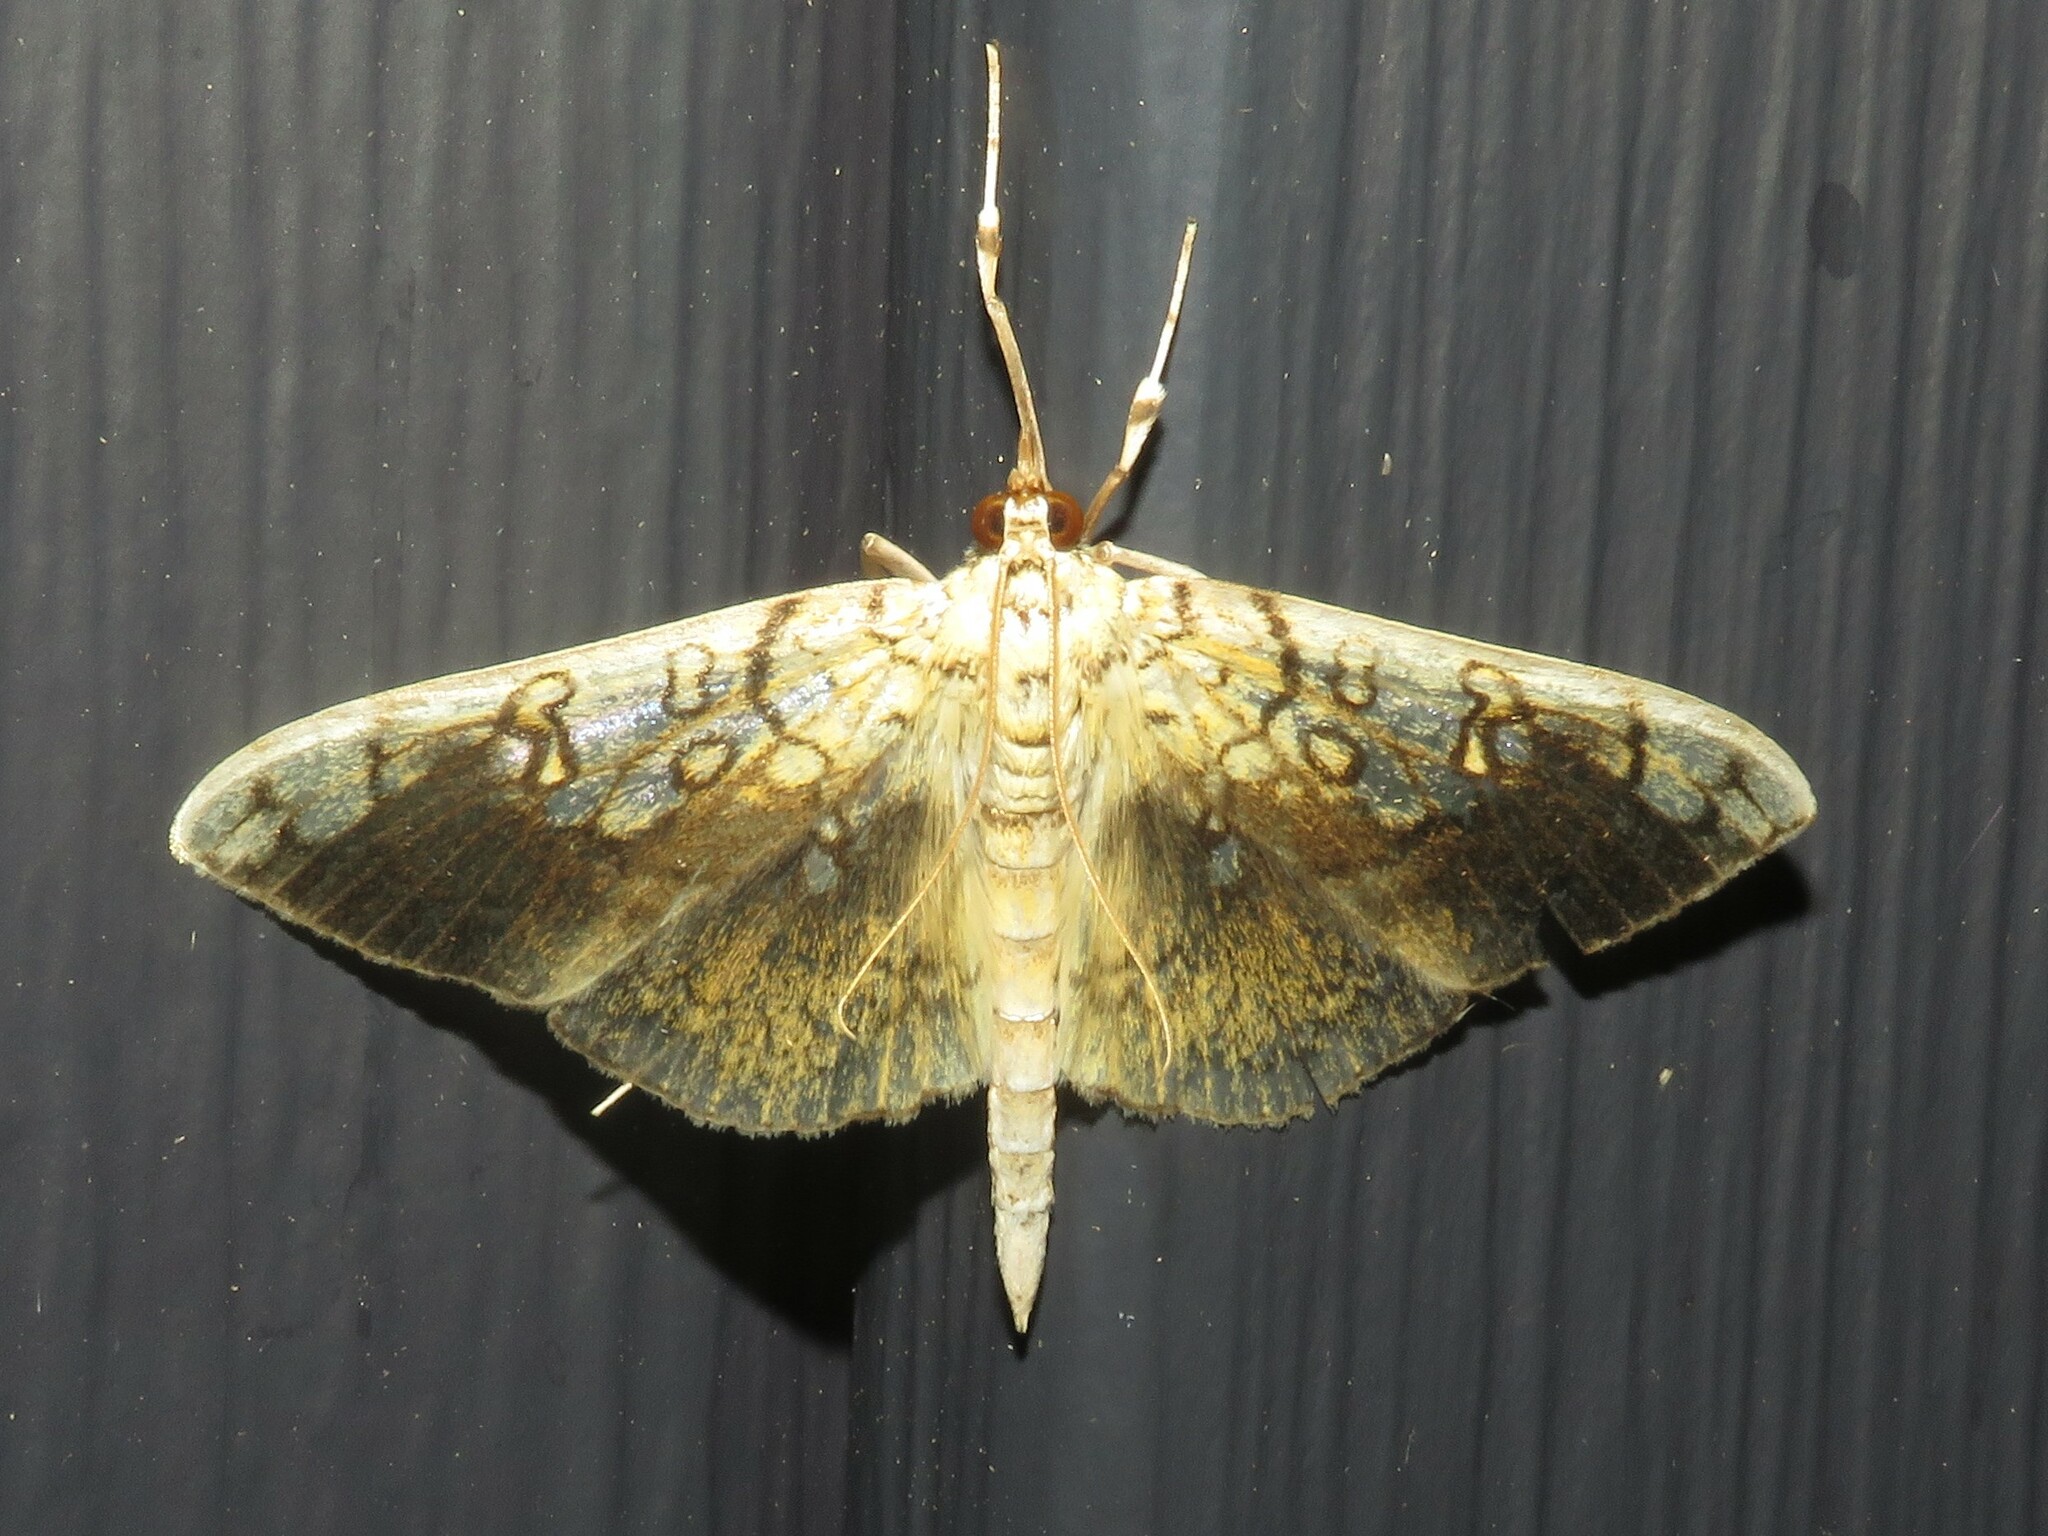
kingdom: Animalia
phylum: Arthropoda
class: Insecta
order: Lepidoptera
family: Crambidae
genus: Pantographa
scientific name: Pantographa limata
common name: Basswood leafroller moth
